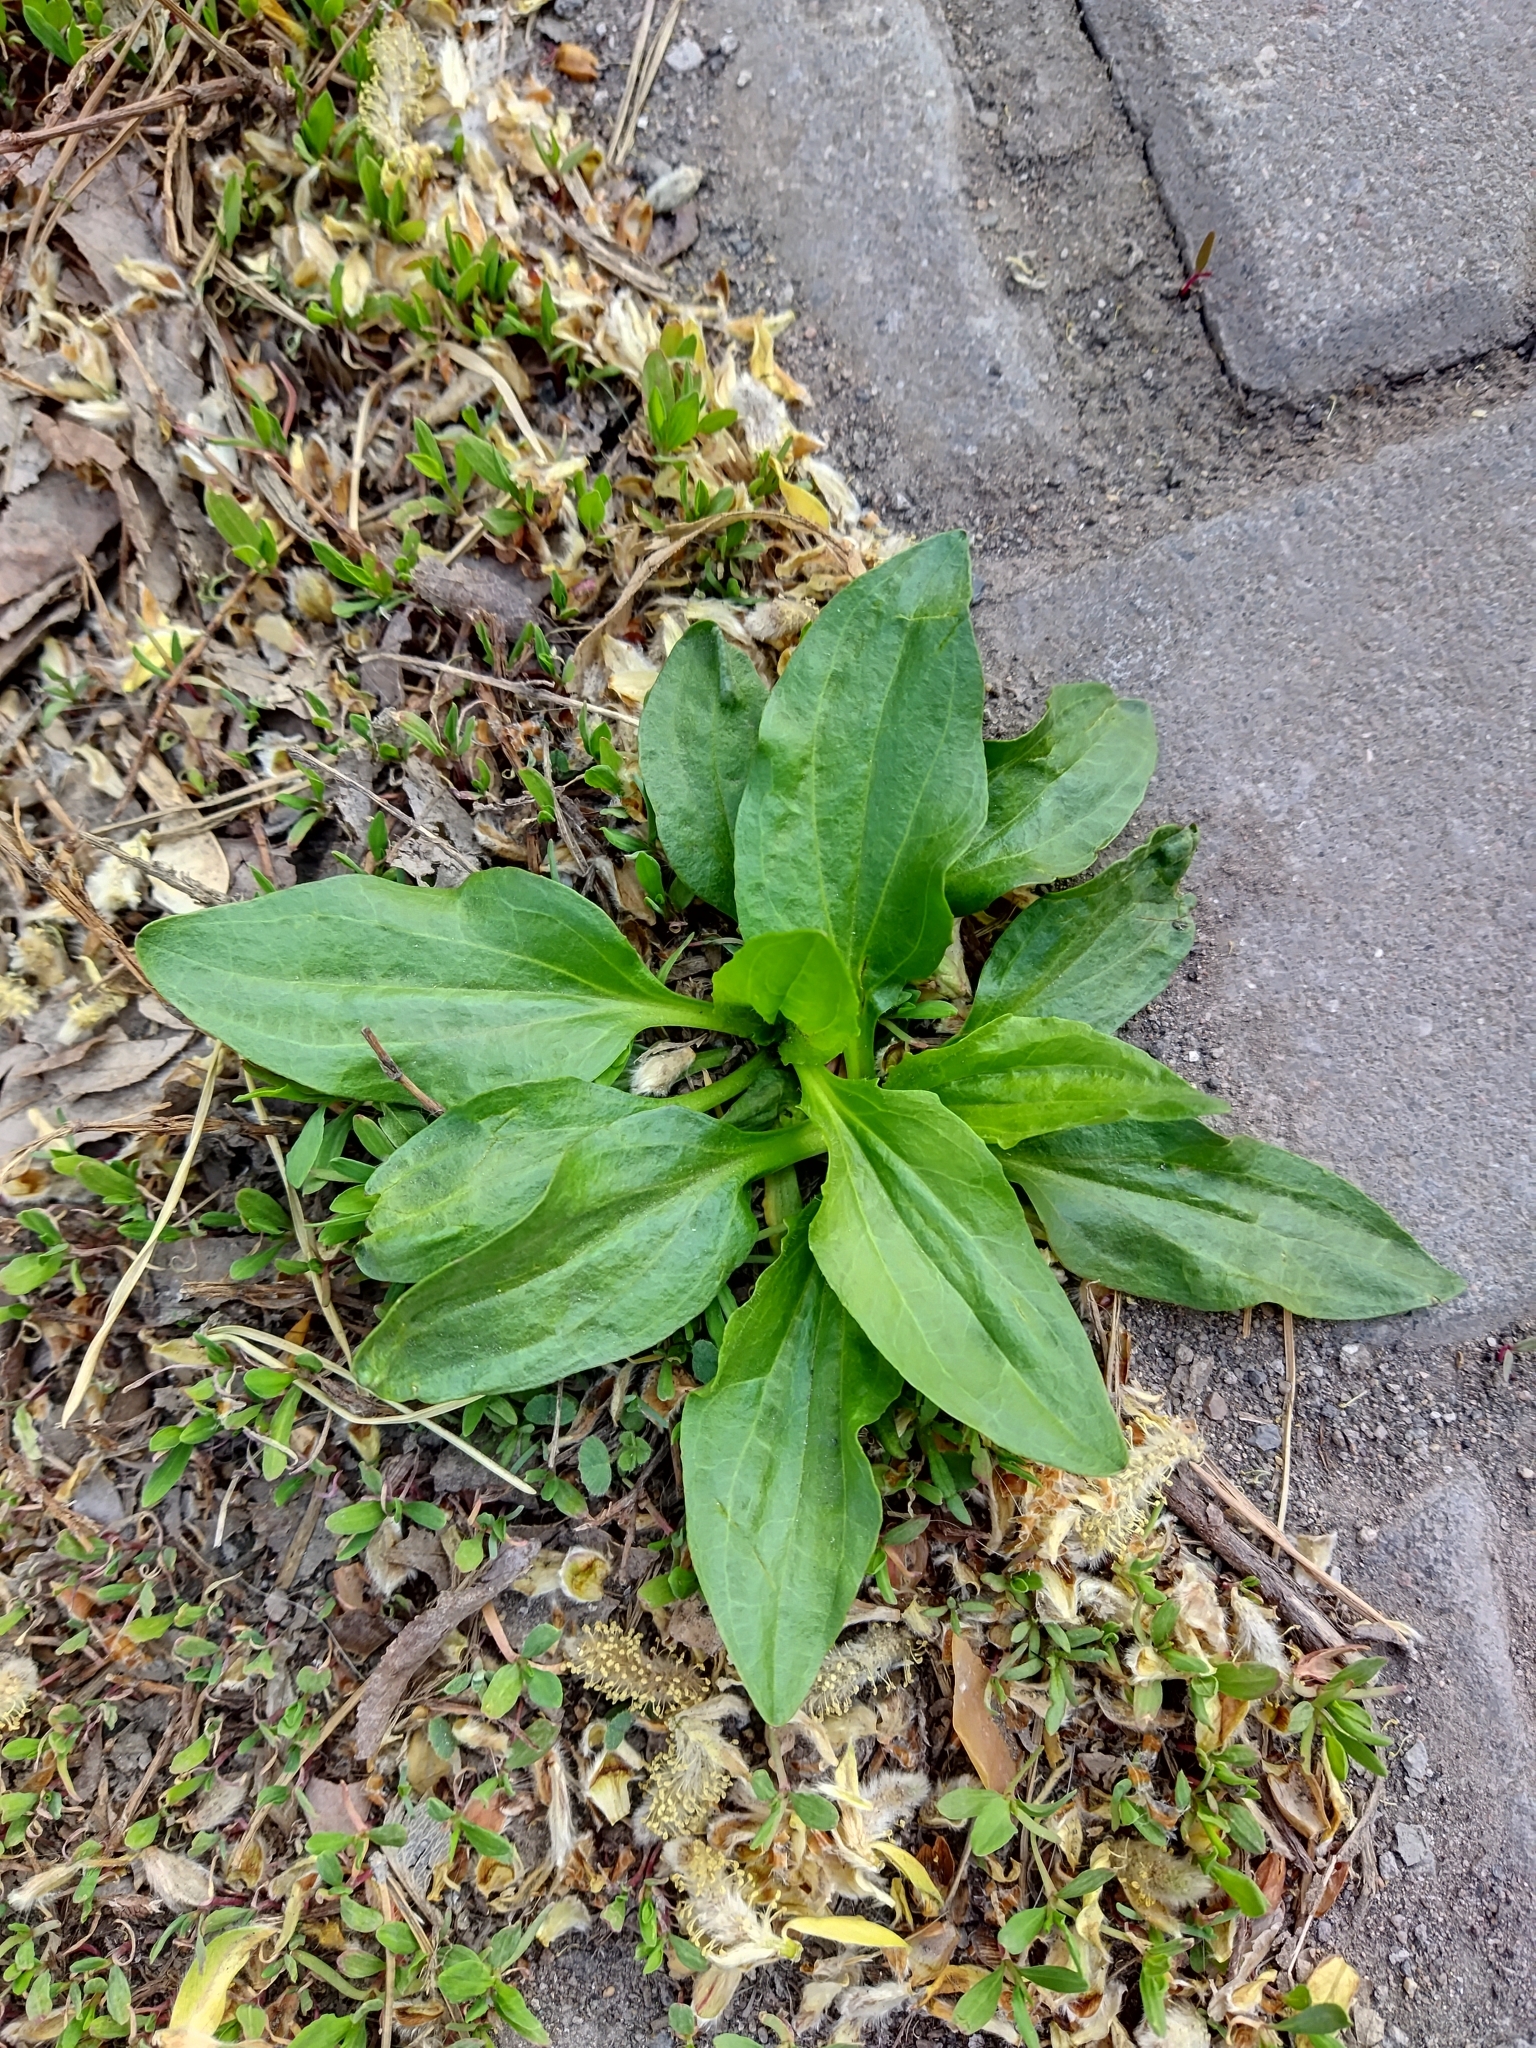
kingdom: Plantae
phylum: Tracheophyta
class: Magnoliopsida
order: Lamiales
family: Plantaginaceae
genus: Plantago
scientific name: Plantago major
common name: Common plantain
